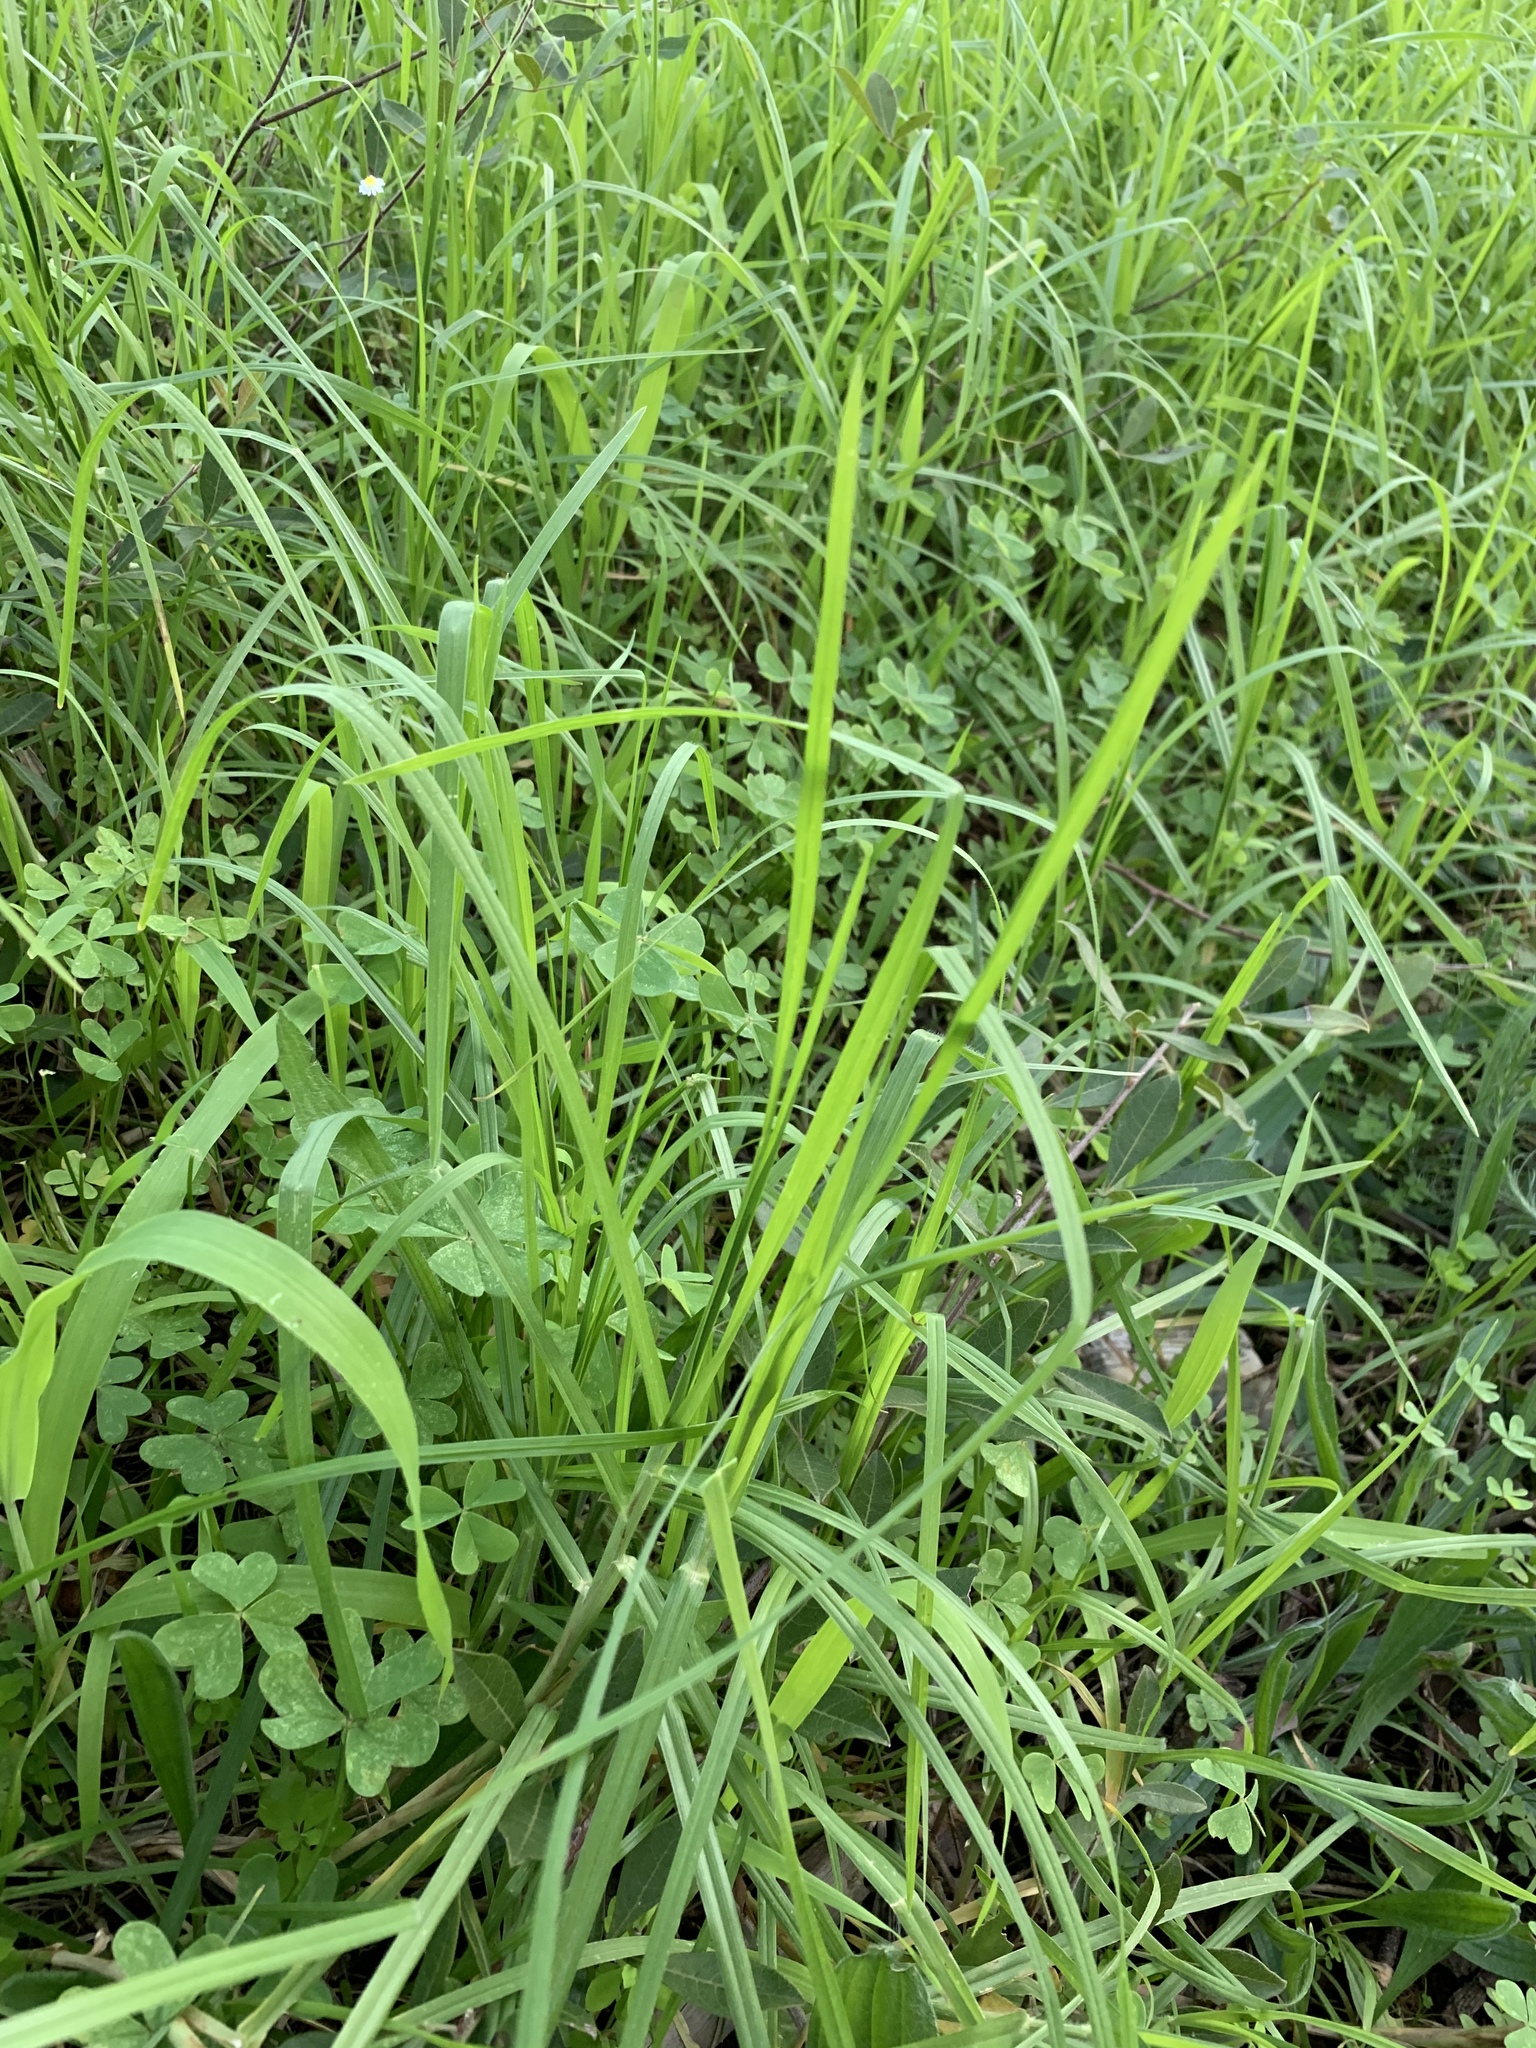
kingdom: Plantae
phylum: Tracheophyta
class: Liliopsida
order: Poales
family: Poaceae
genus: Cenchrus
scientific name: Cenchrus clandestinus
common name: Kikuyugrass
